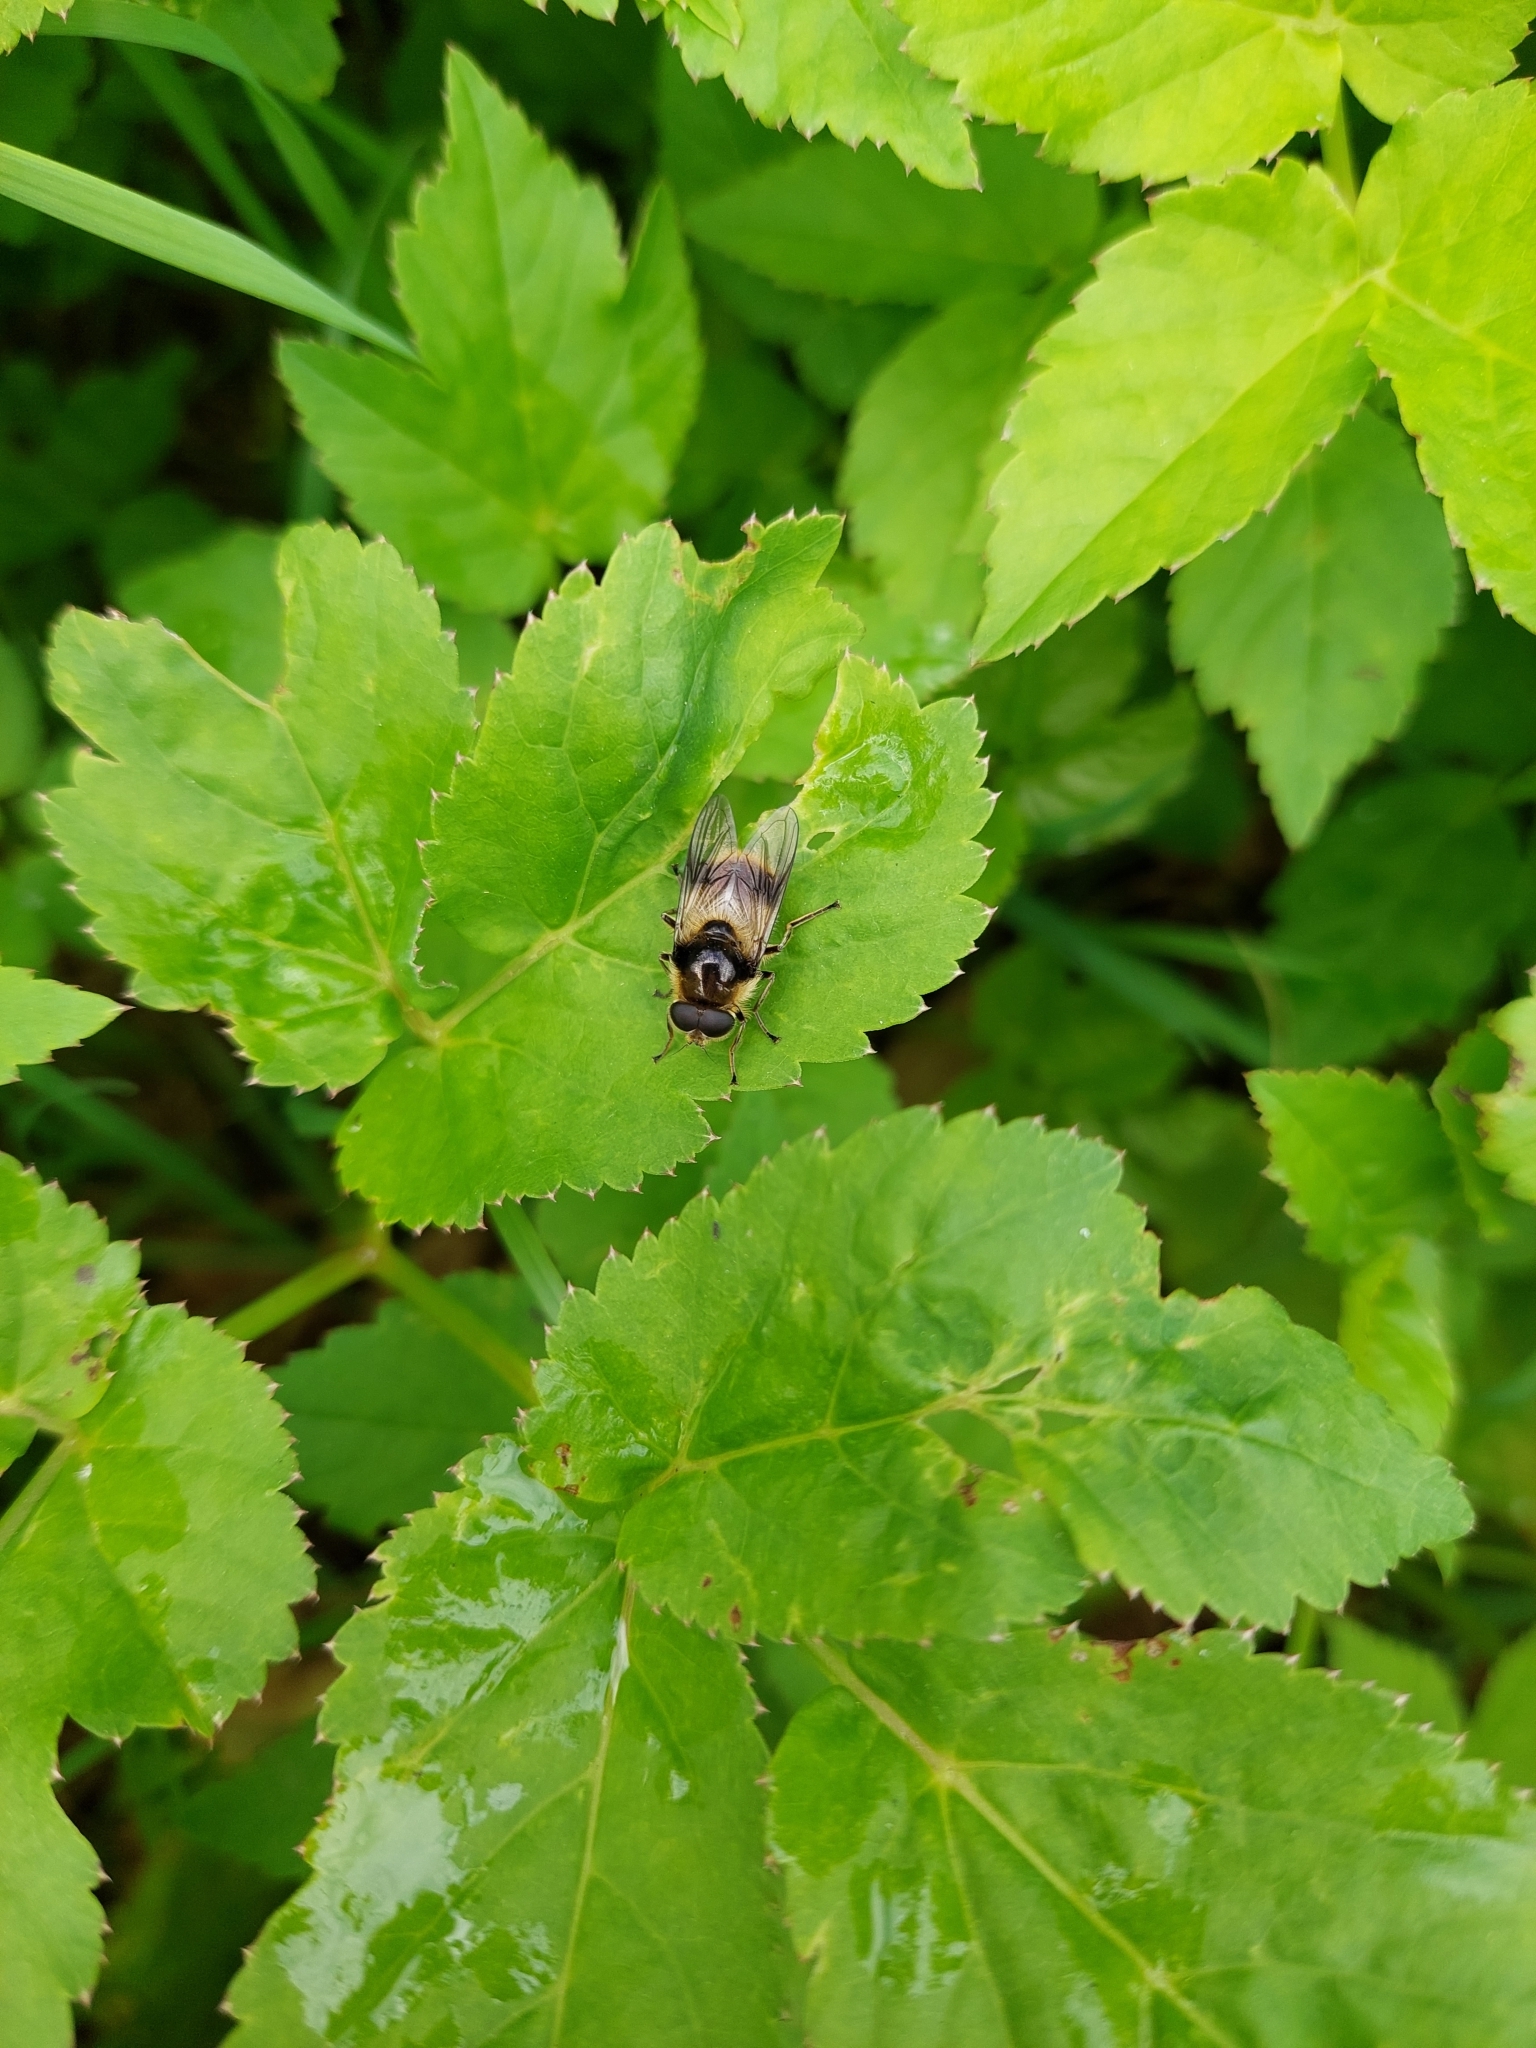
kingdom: Animalia
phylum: Arthropoda
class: Insecta
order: Diptera
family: Syrphidae
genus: Cheilosia
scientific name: Cheilosia illustrata
